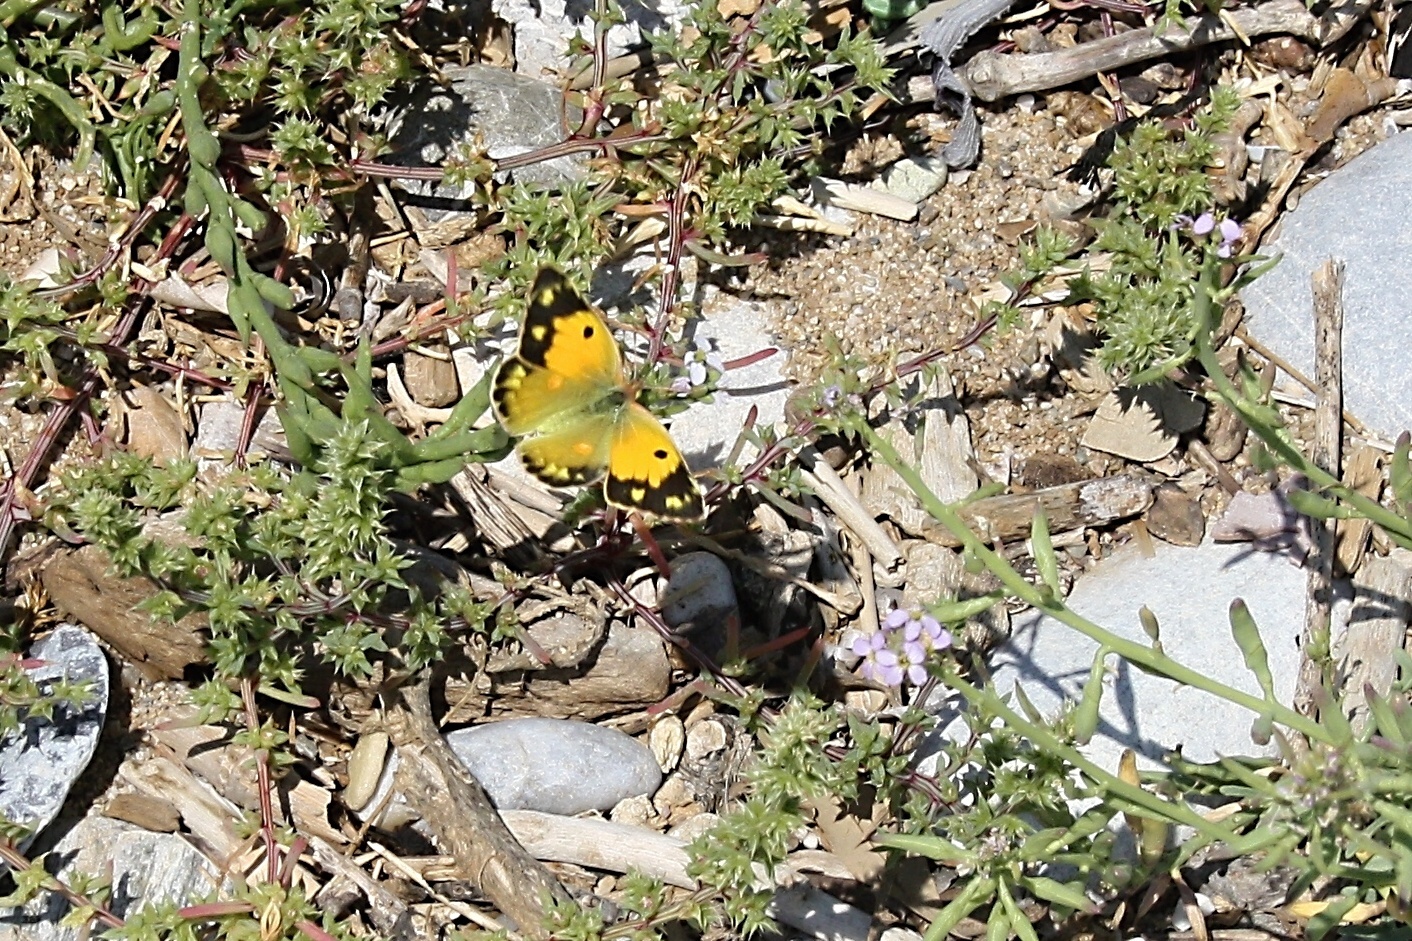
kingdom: Animalia
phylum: Arthropoda
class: Insecta
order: Lepidoptera
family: Pieridae
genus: Colias
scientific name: Colias croceus
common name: Clouded yellow
